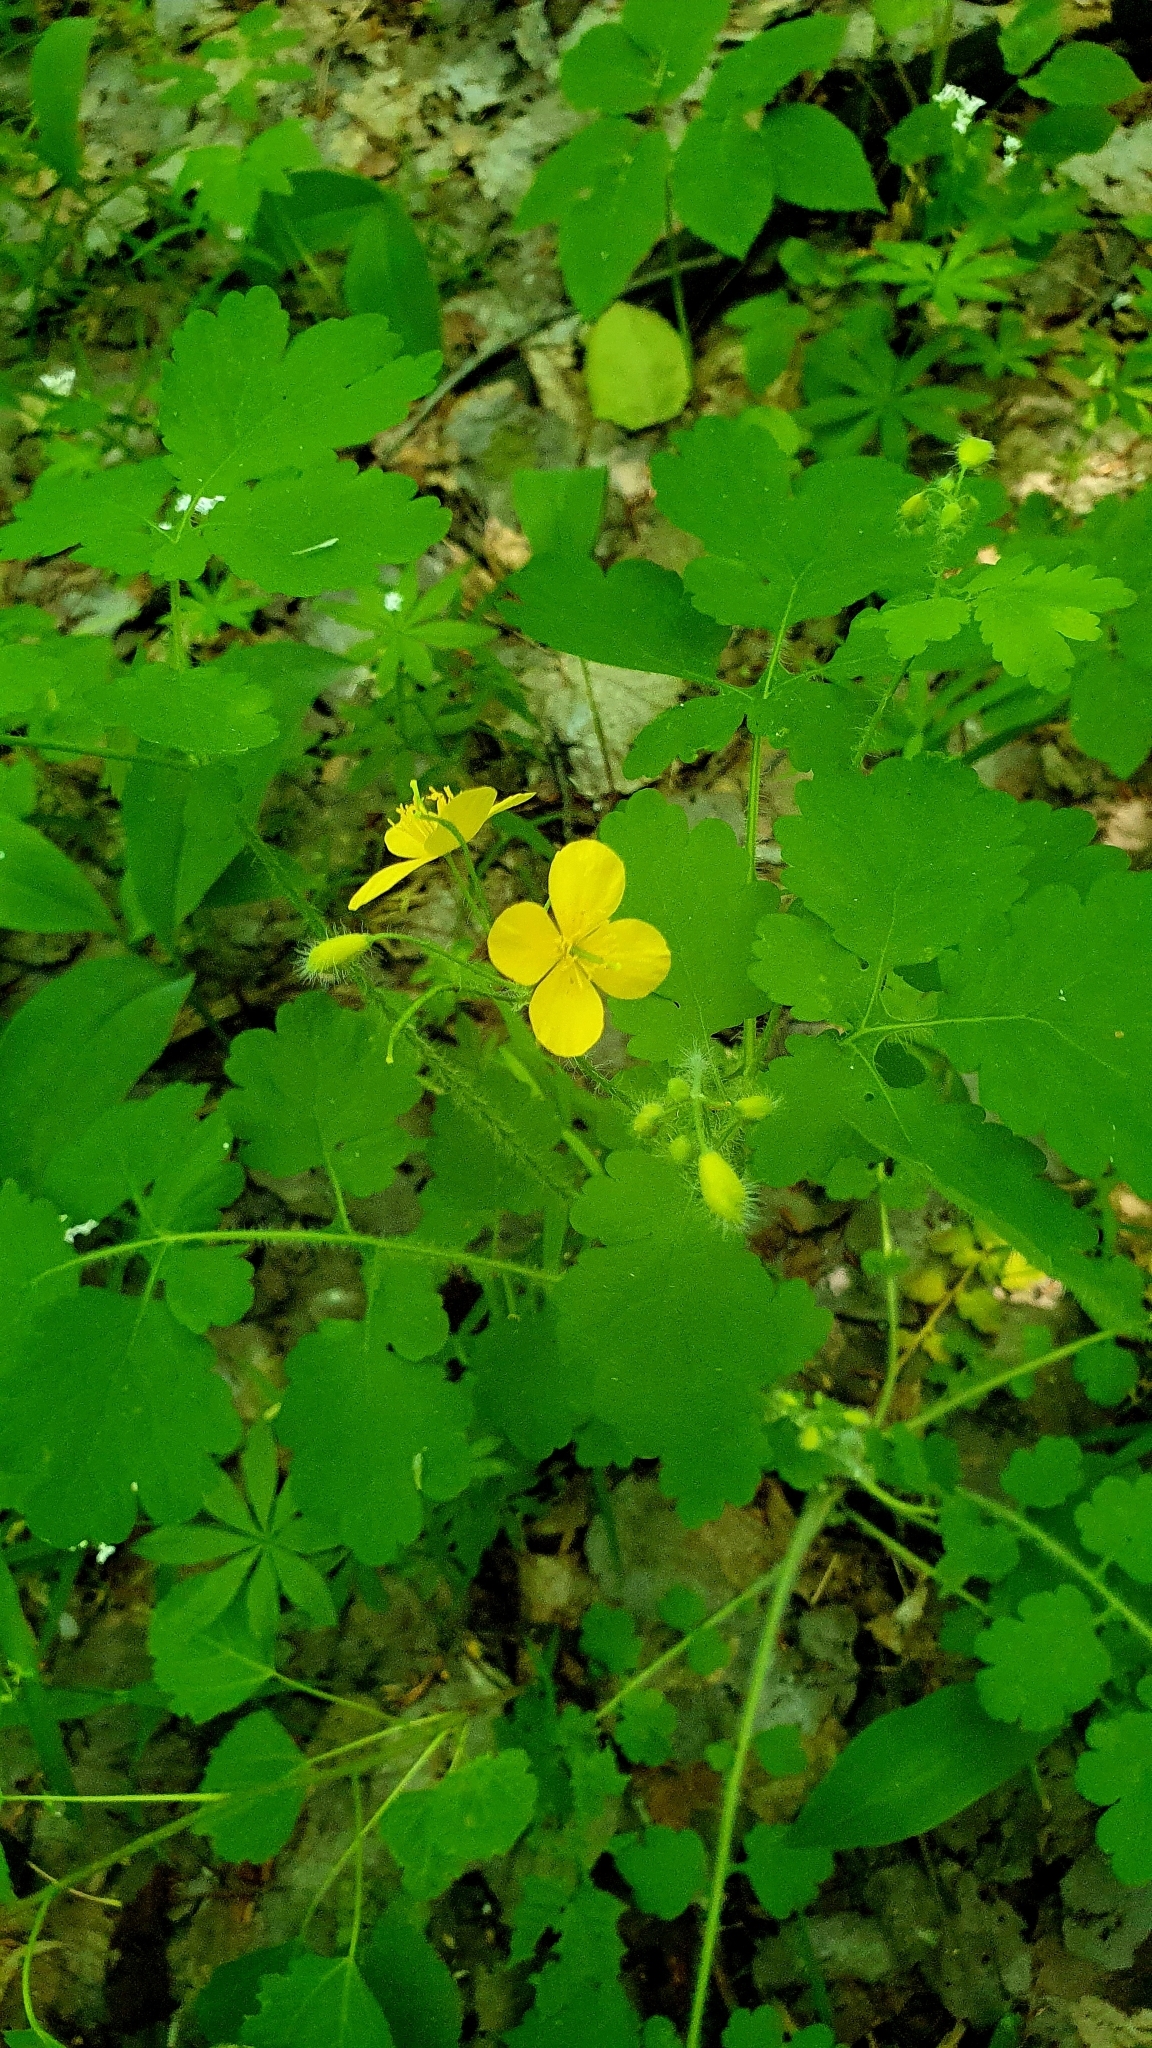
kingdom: Plantae
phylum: Tracheophyta
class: Magnoliopsida
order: Ranunculales
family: Papaveraceae
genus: Chelidonium
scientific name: Chelidonium majus
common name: Greater celandine
